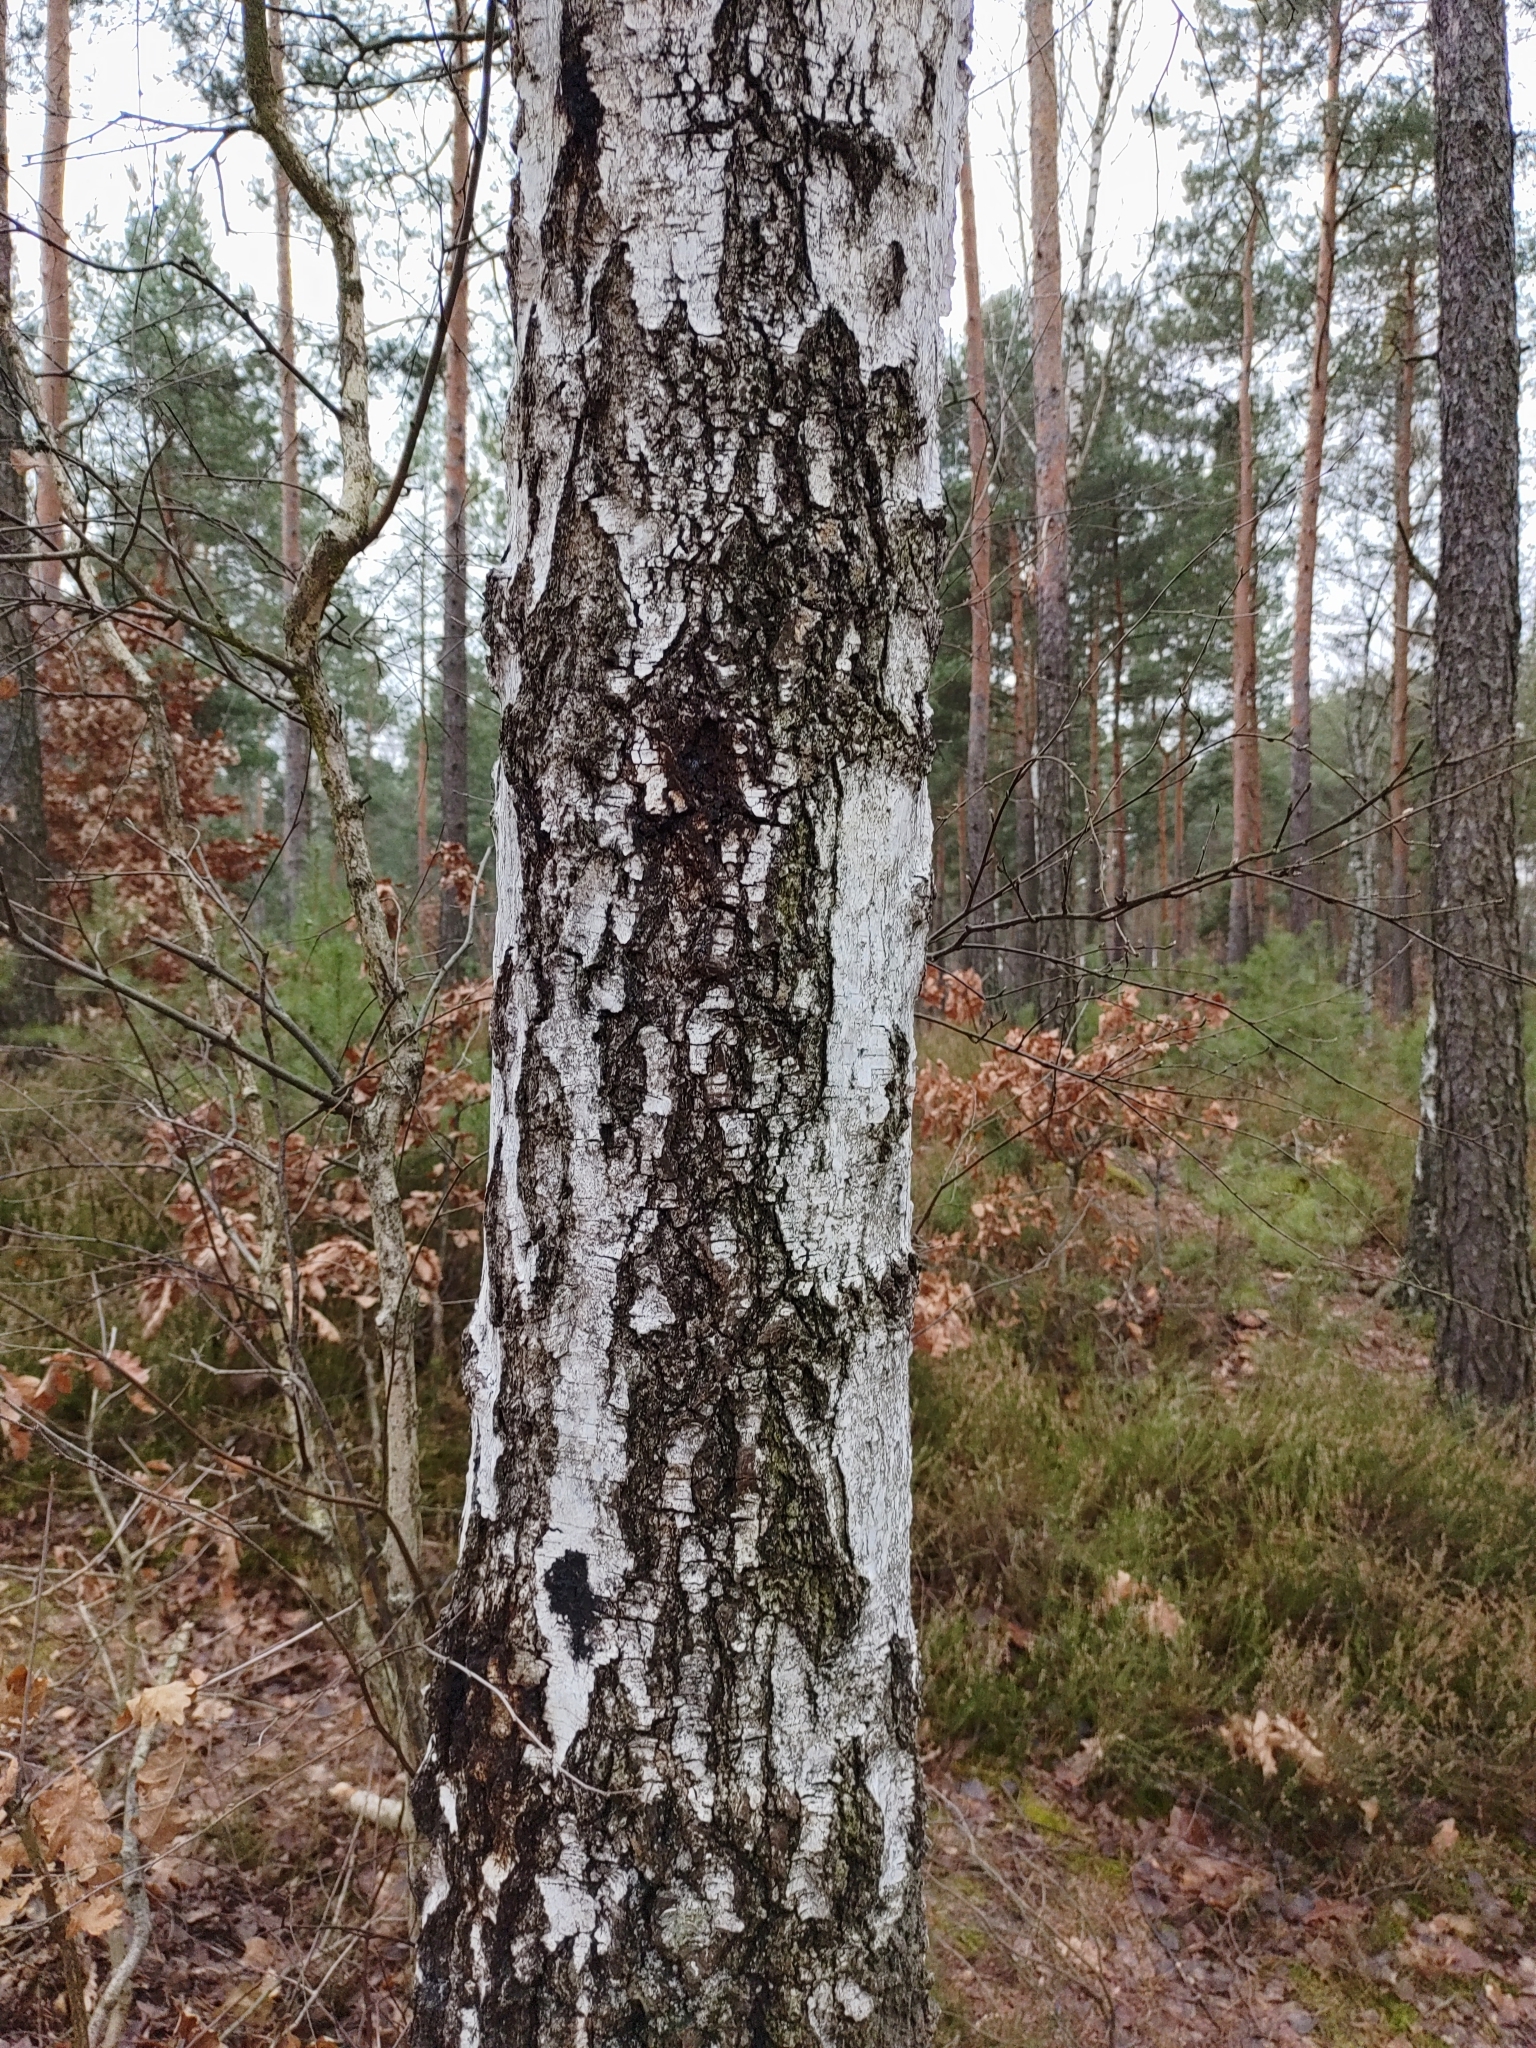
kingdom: Plantae
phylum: Tracheophyta
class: Magnoliopsida
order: Fagales
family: Betulaceae
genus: Betula
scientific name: Betula pendula
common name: Silver birch
